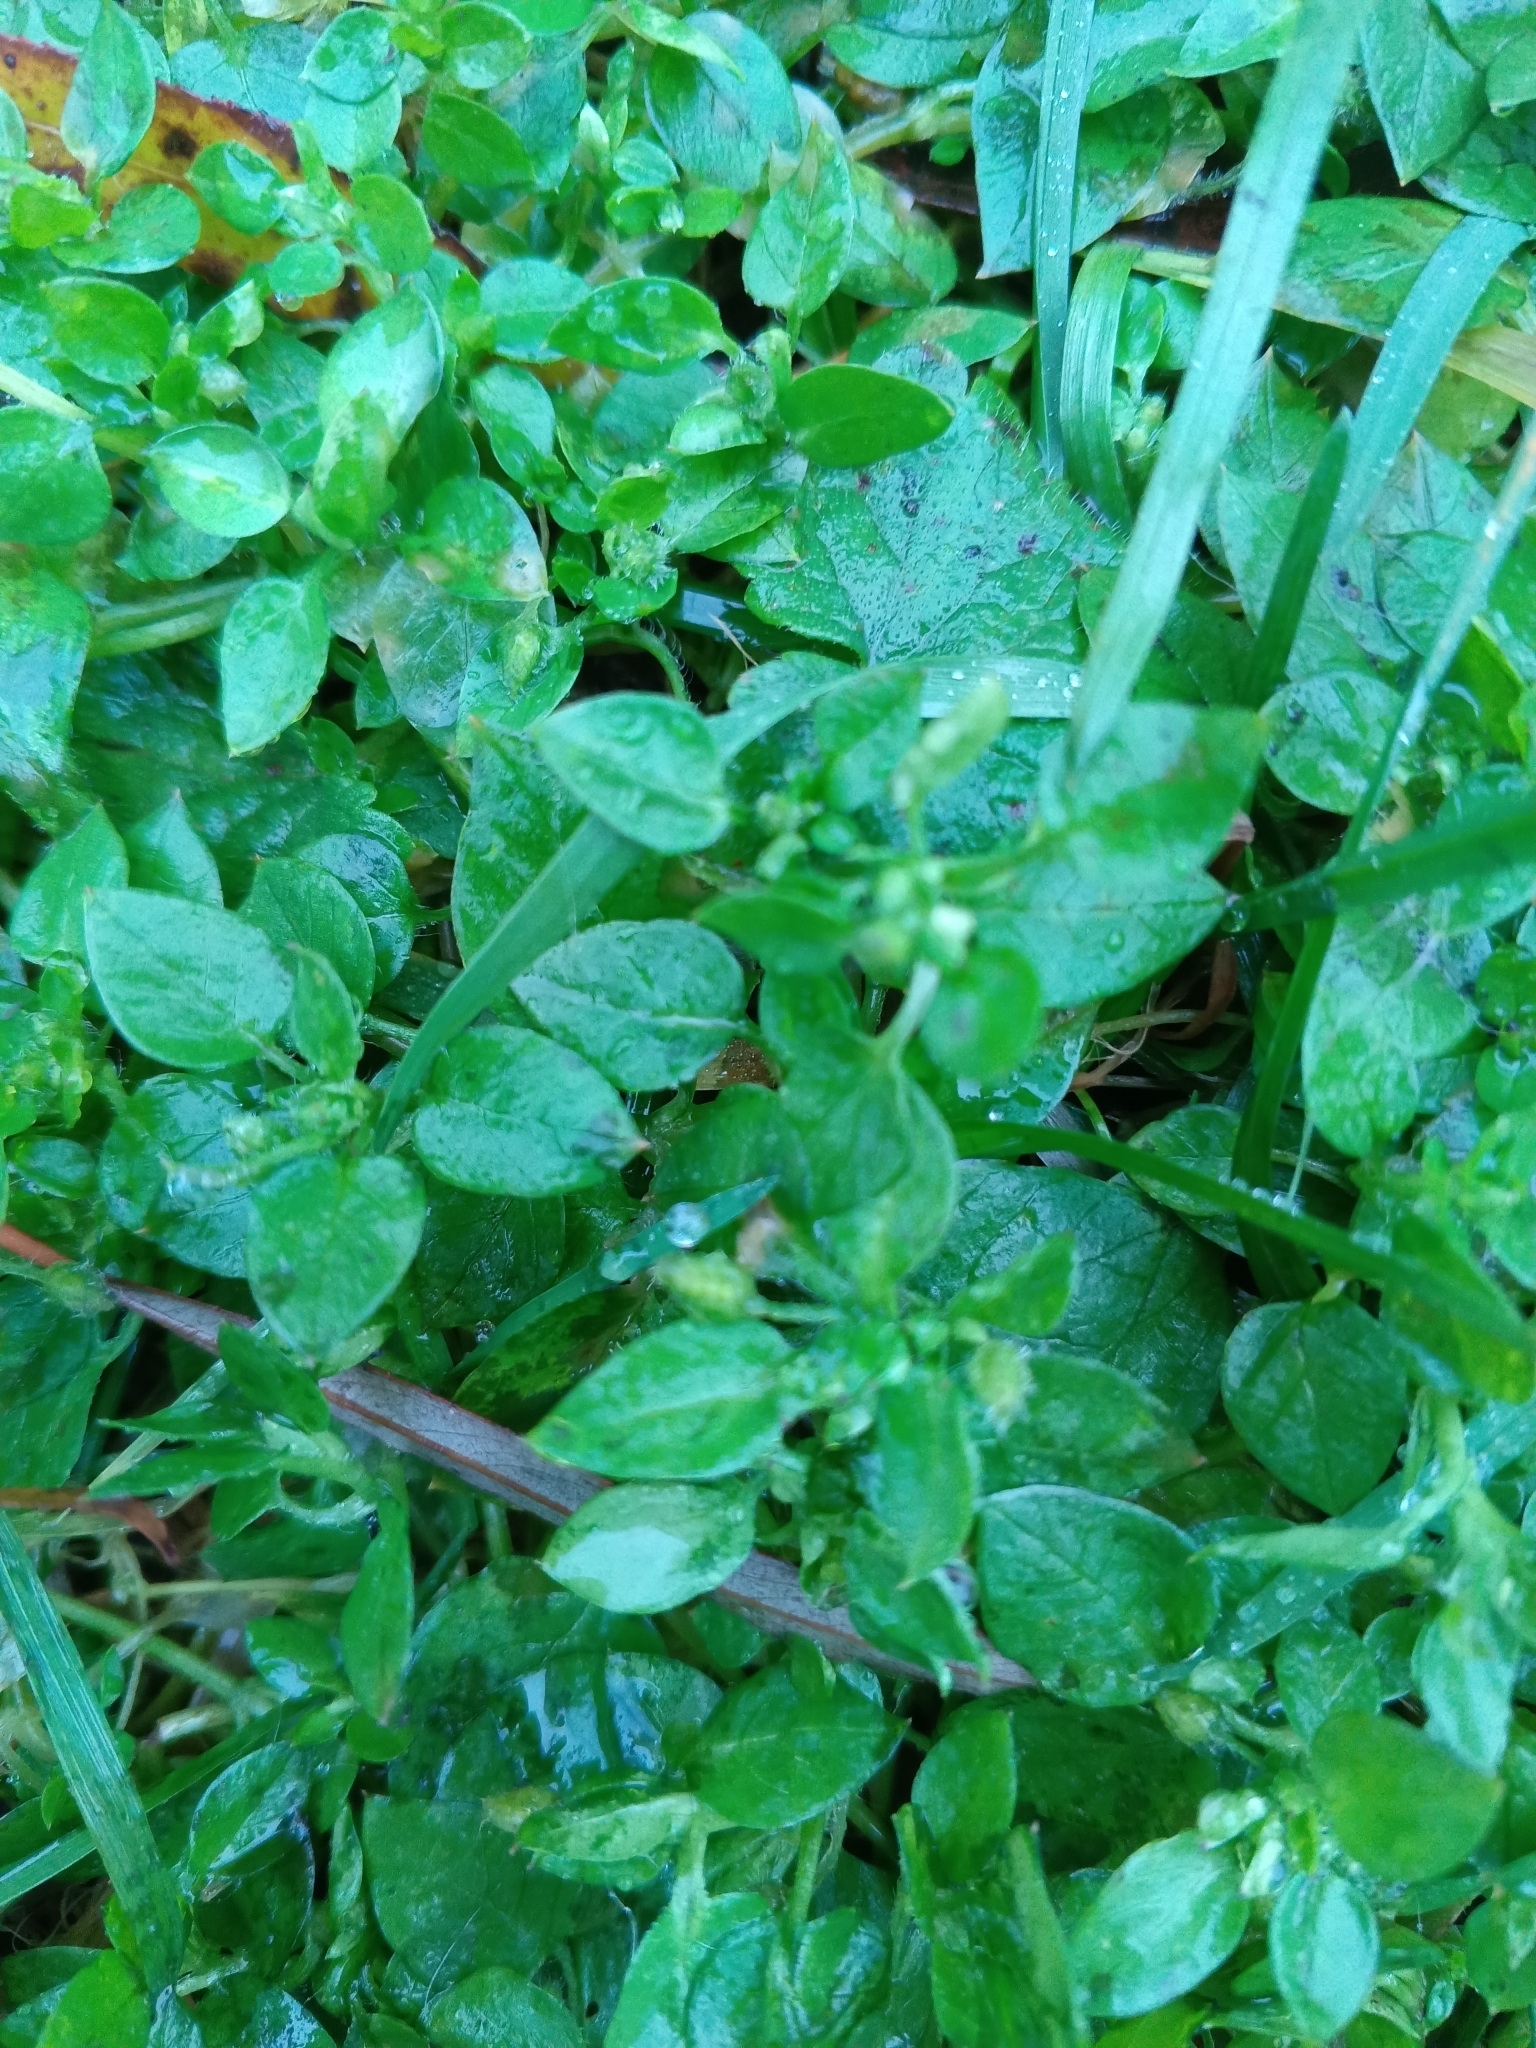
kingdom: Plantae
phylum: Tracheophyta
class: Magnoliopsida
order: Caryophyllales
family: Caryophyllaceae
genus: Stellaria
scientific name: Stellaria media
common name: Common chickweed
